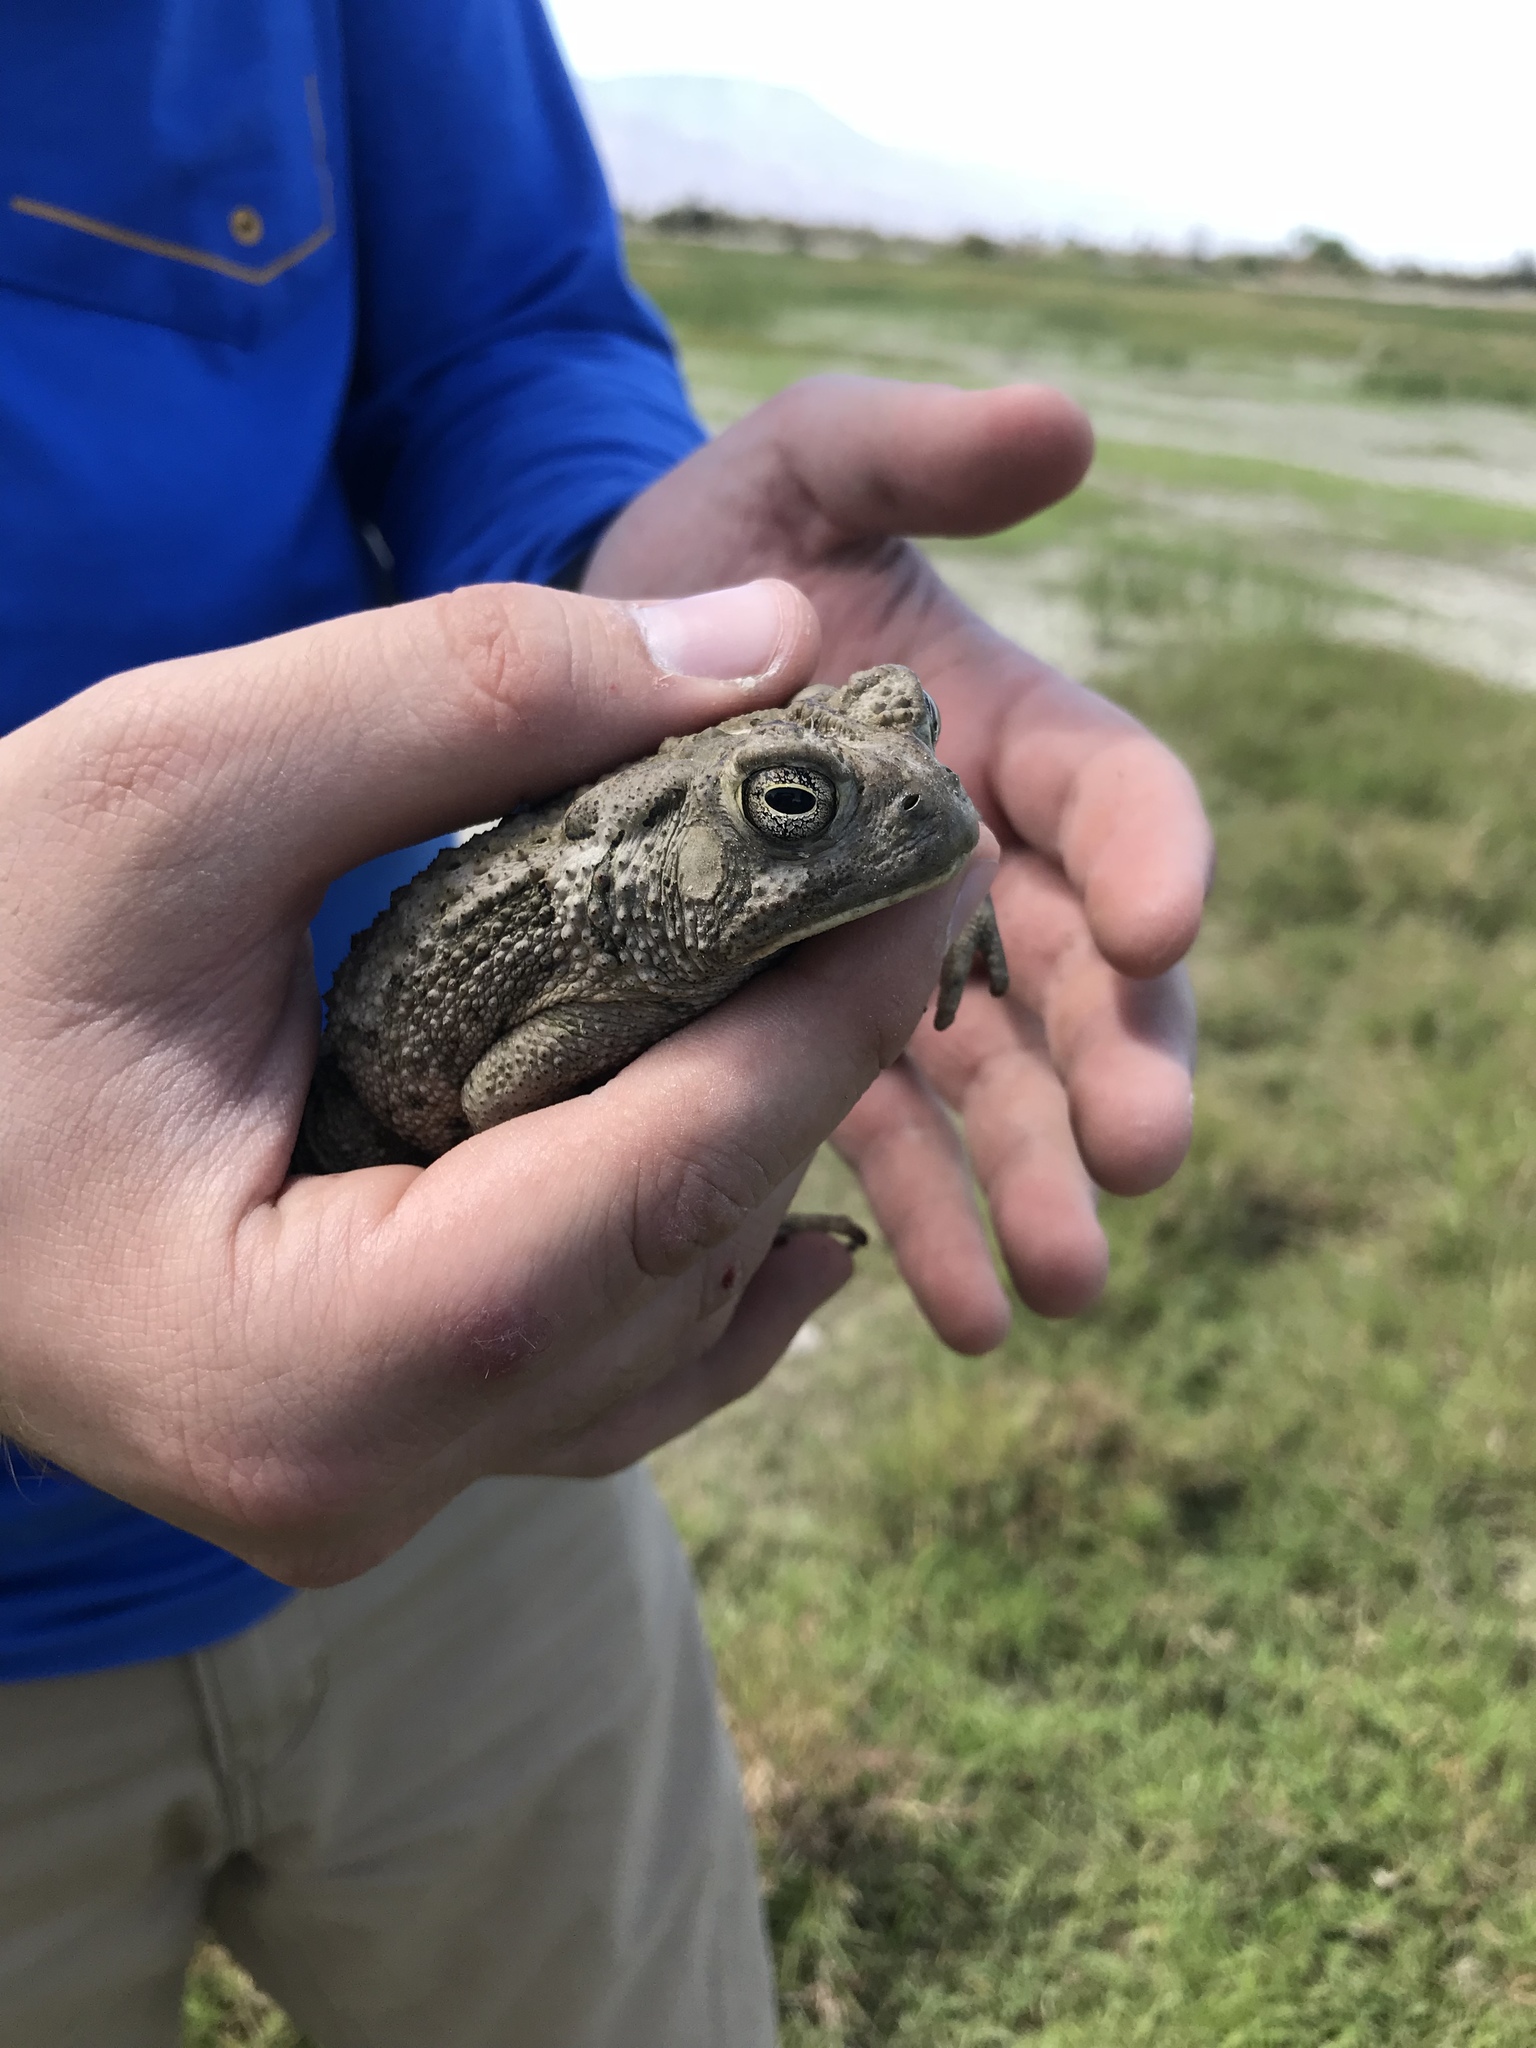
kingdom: Animalia
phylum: Chordata
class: Amphibia
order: Anura
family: Bufonidae
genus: Anaxyrus
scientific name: Anaxyrus woodhousii
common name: Woodhouse's toad
